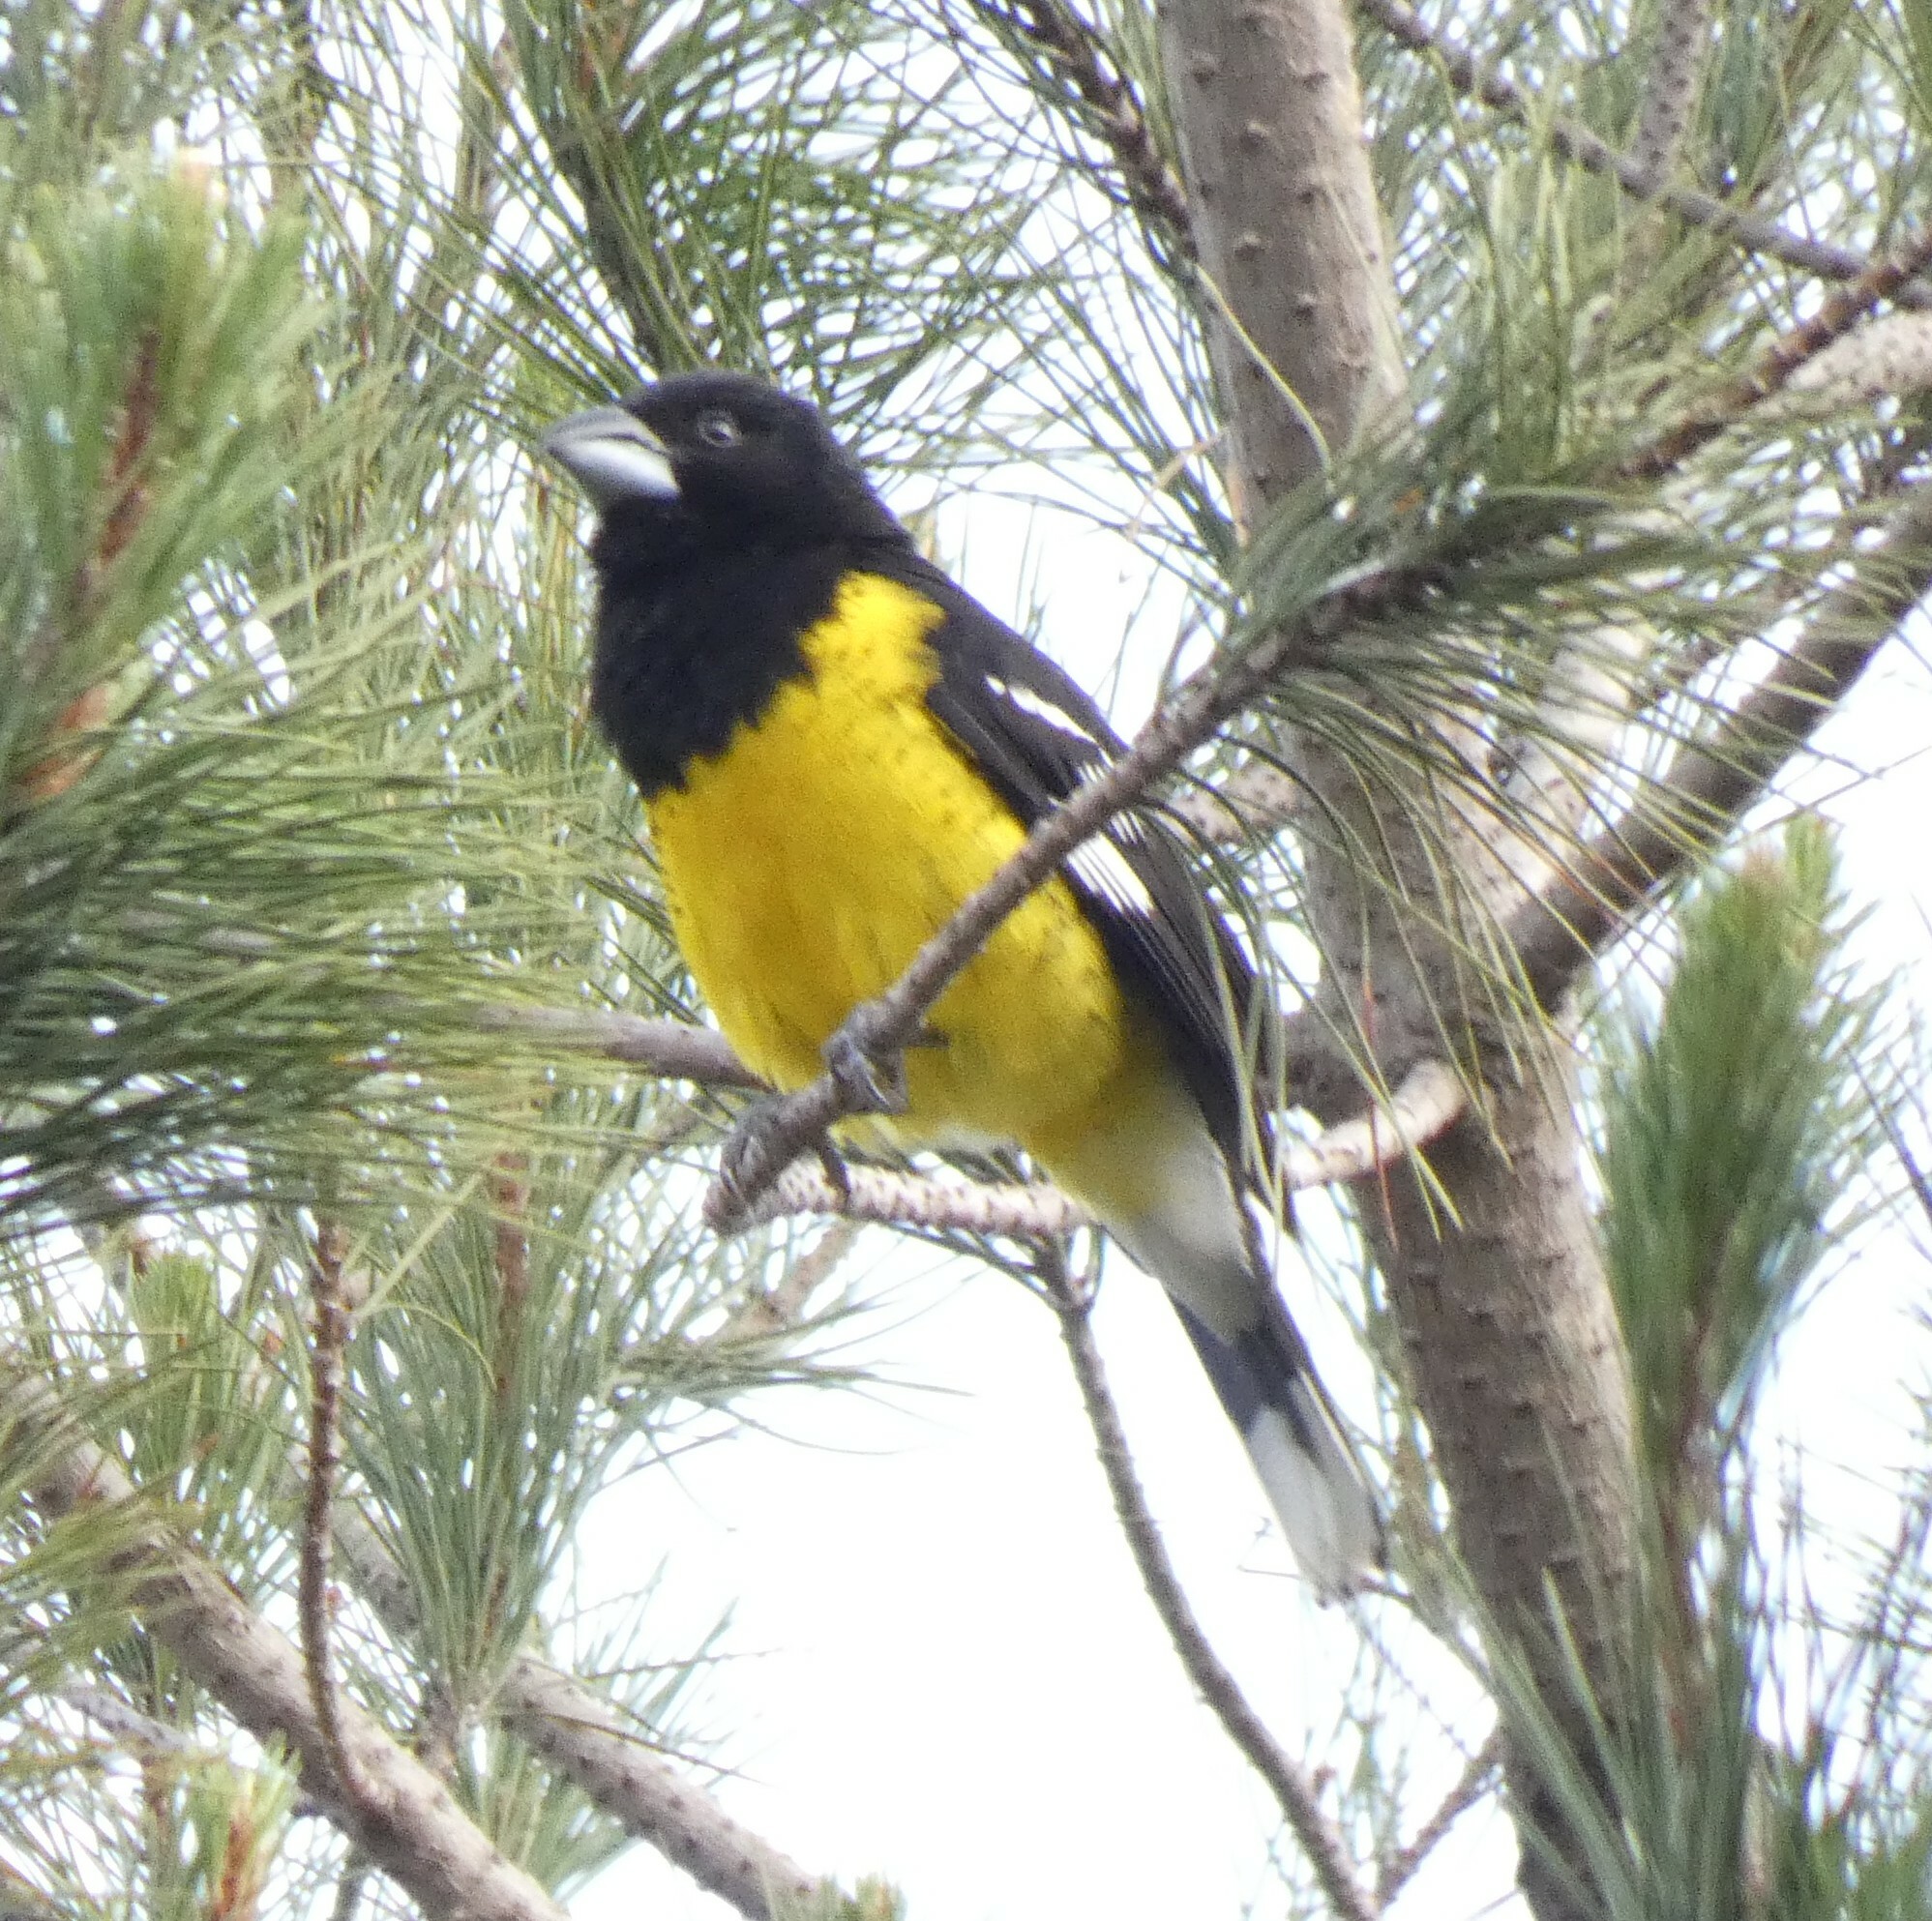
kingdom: Animalia
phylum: Chordata
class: Aves
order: Passeriformes
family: Cardinalidae
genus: Pheucticus
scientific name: Pheucticus aureoventris
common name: Black-backed grosbeak
